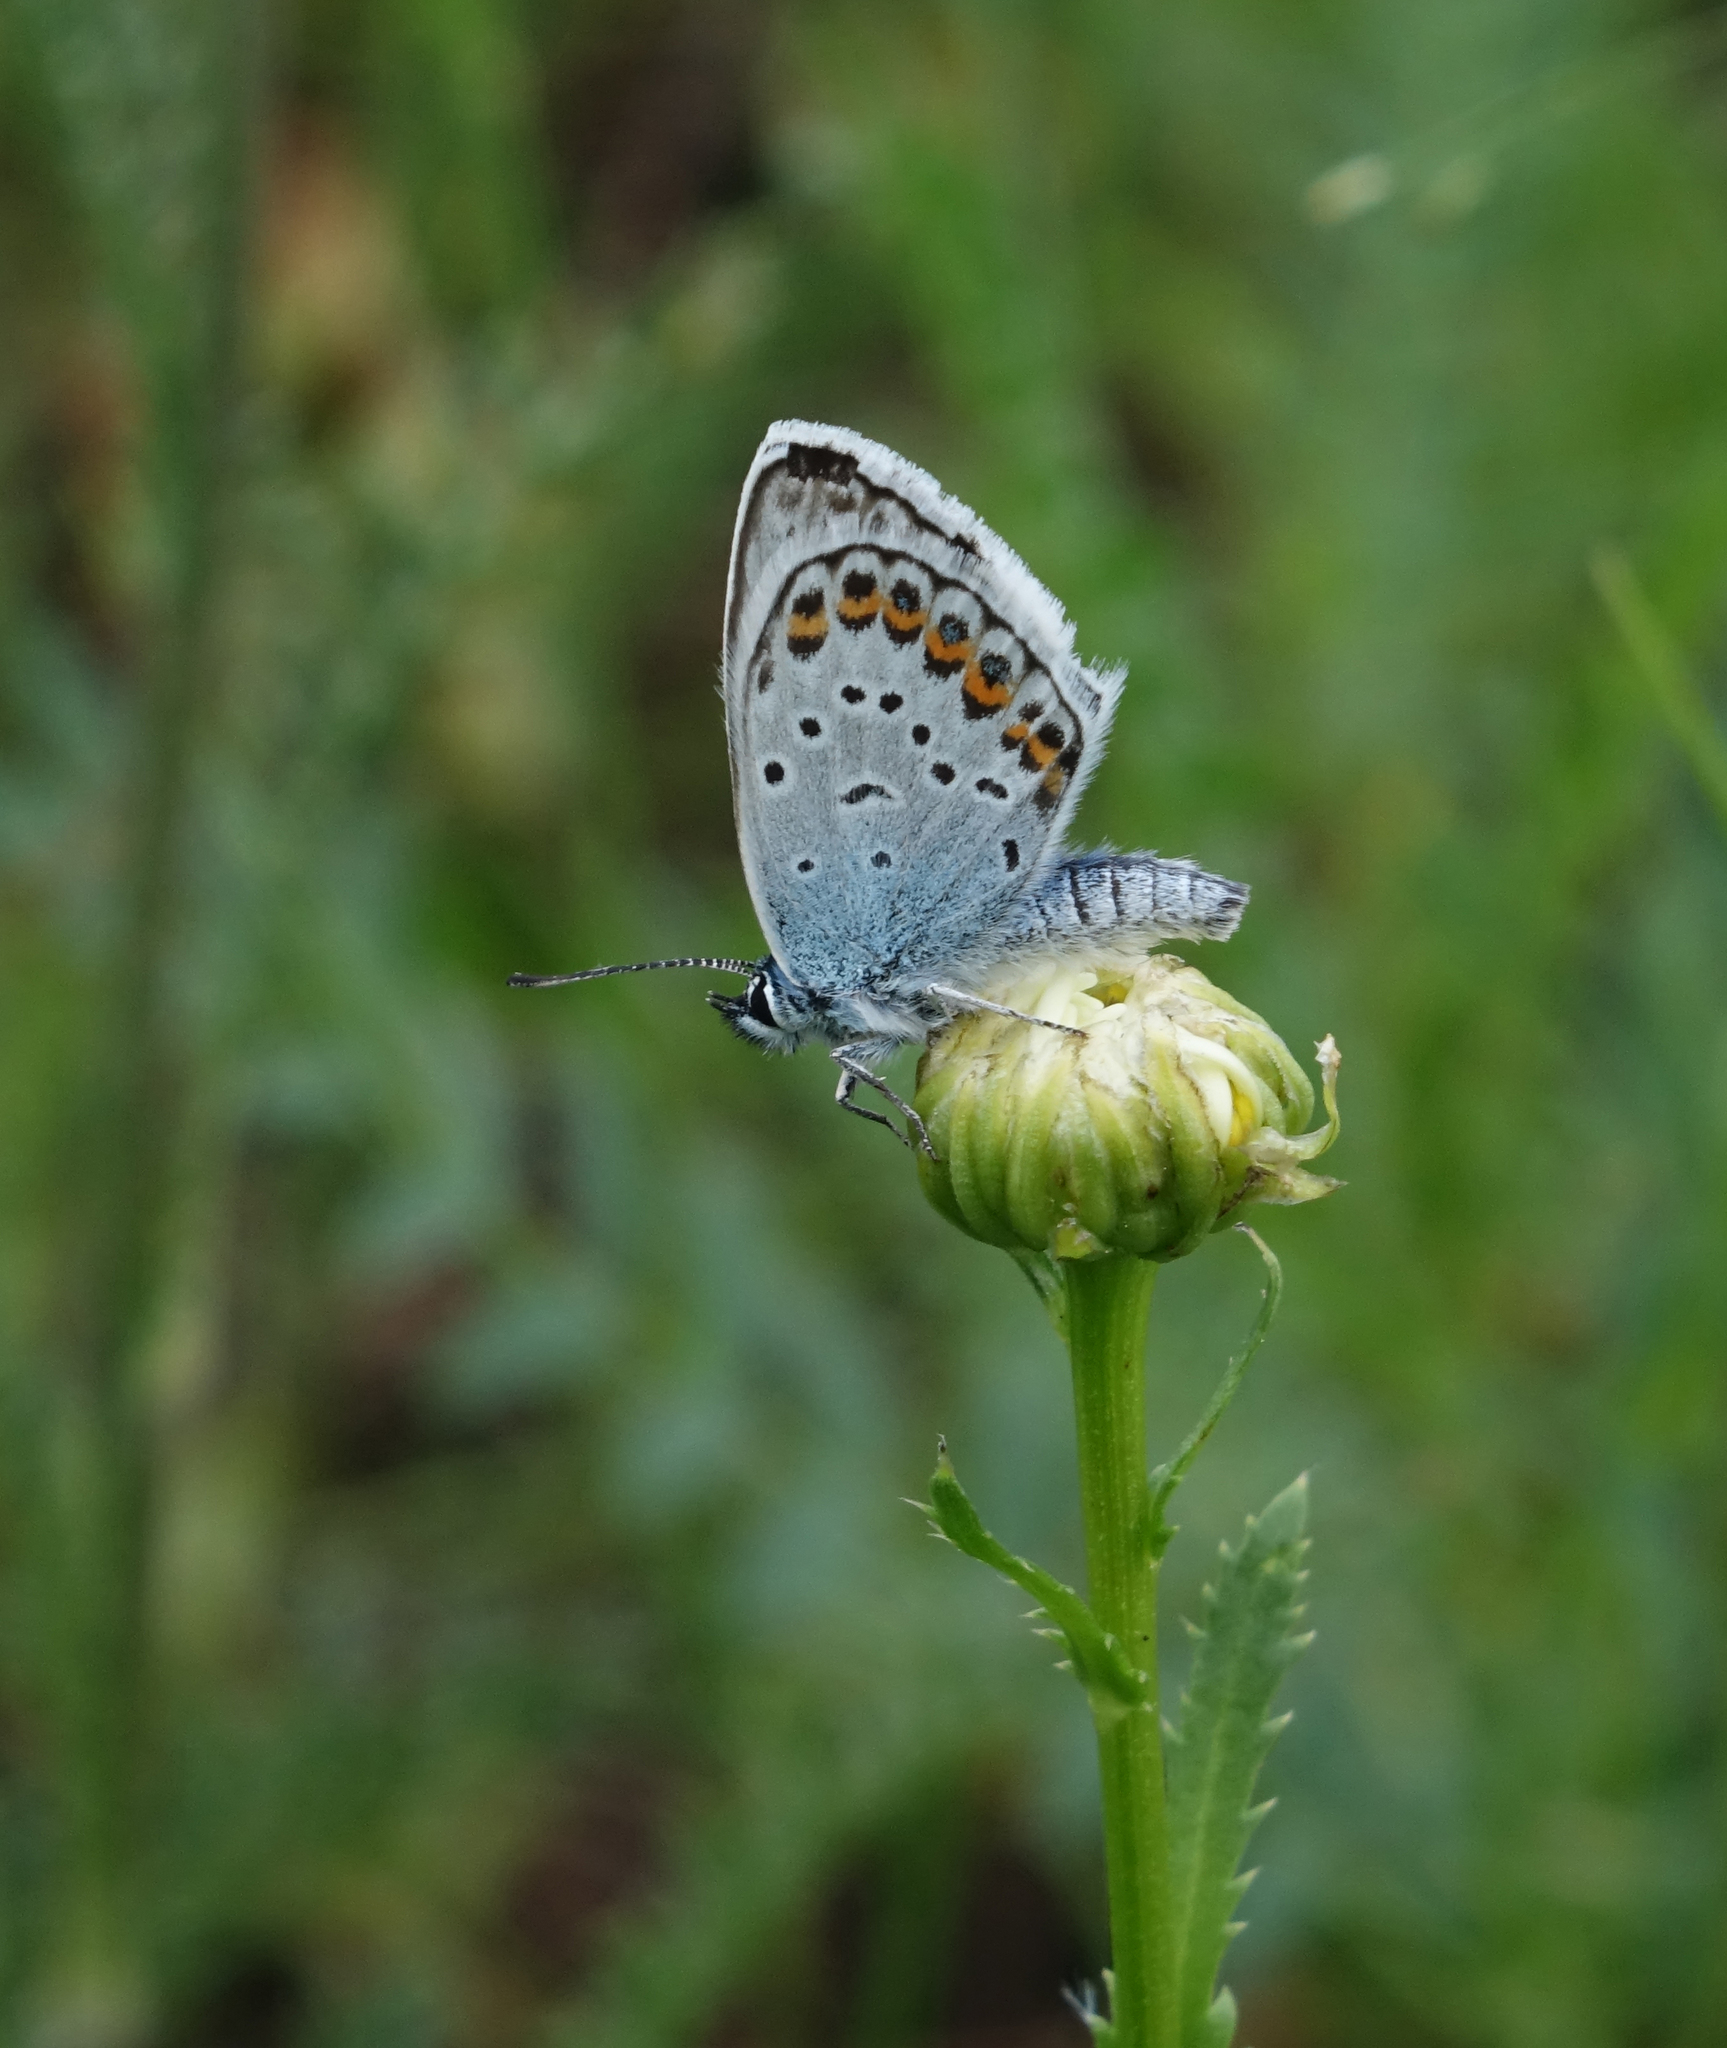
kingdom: Animalia
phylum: Arthropoda
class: Insecta
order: Lepidoptera
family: Lycaenidae
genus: Plebejus
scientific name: Plebejus argus
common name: Silver-studded blue
